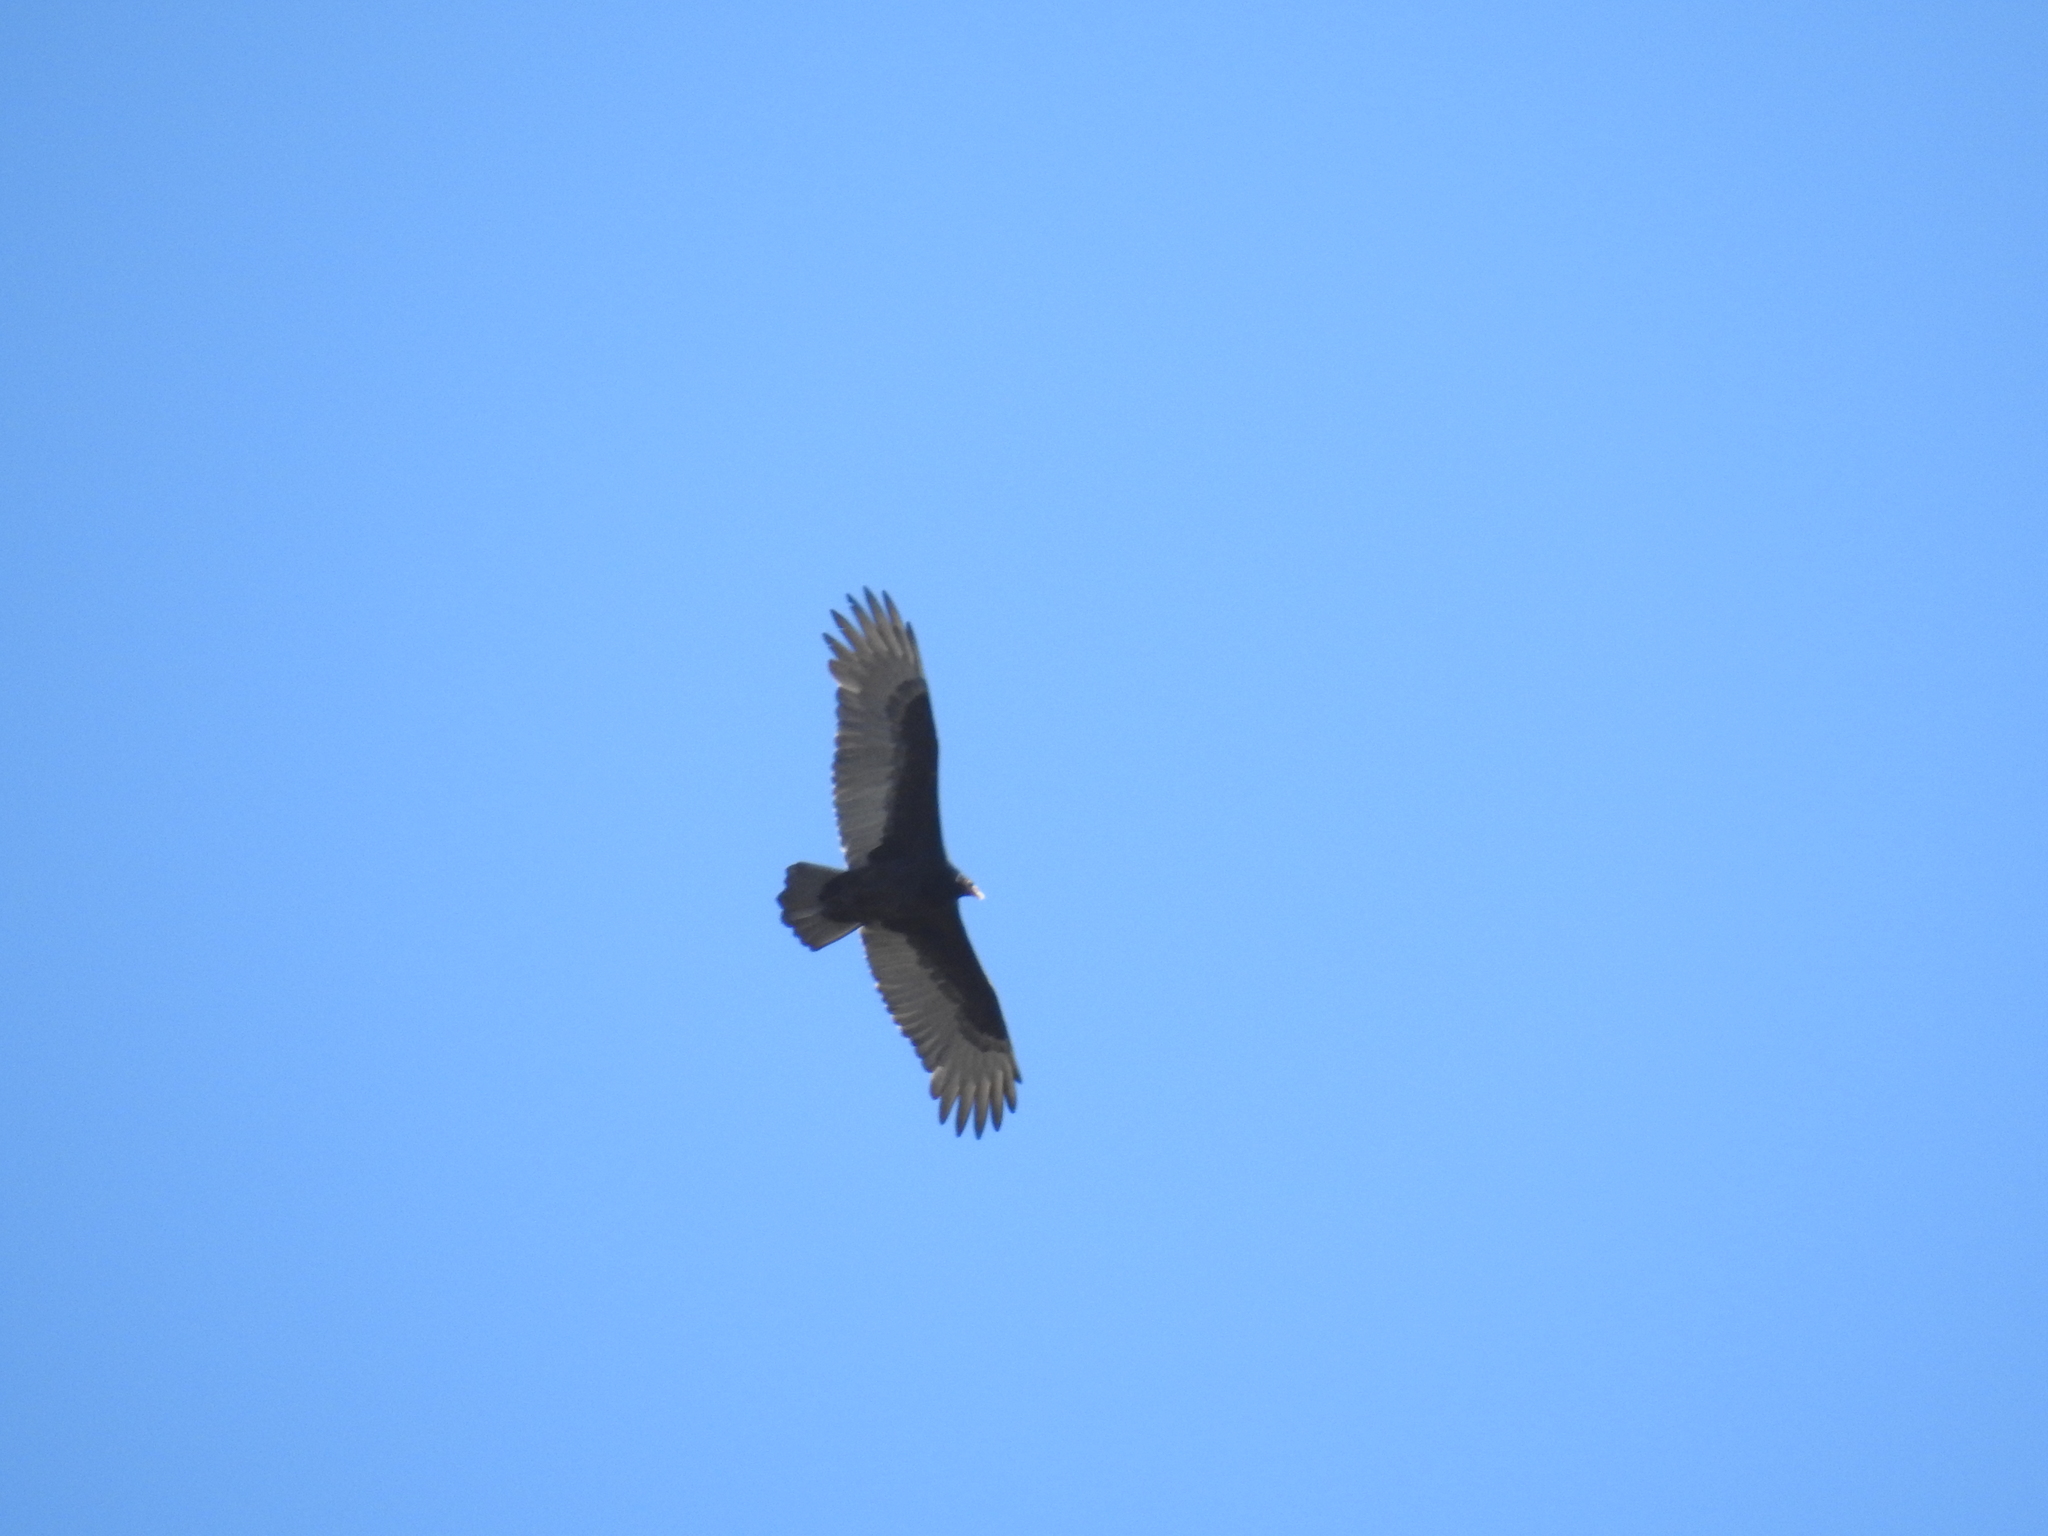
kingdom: Animalia
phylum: Chordata
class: Aves
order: Accipitriformes
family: Cathartidae
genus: Cathartes
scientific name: Cathartes aura
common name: Turkey vulture
